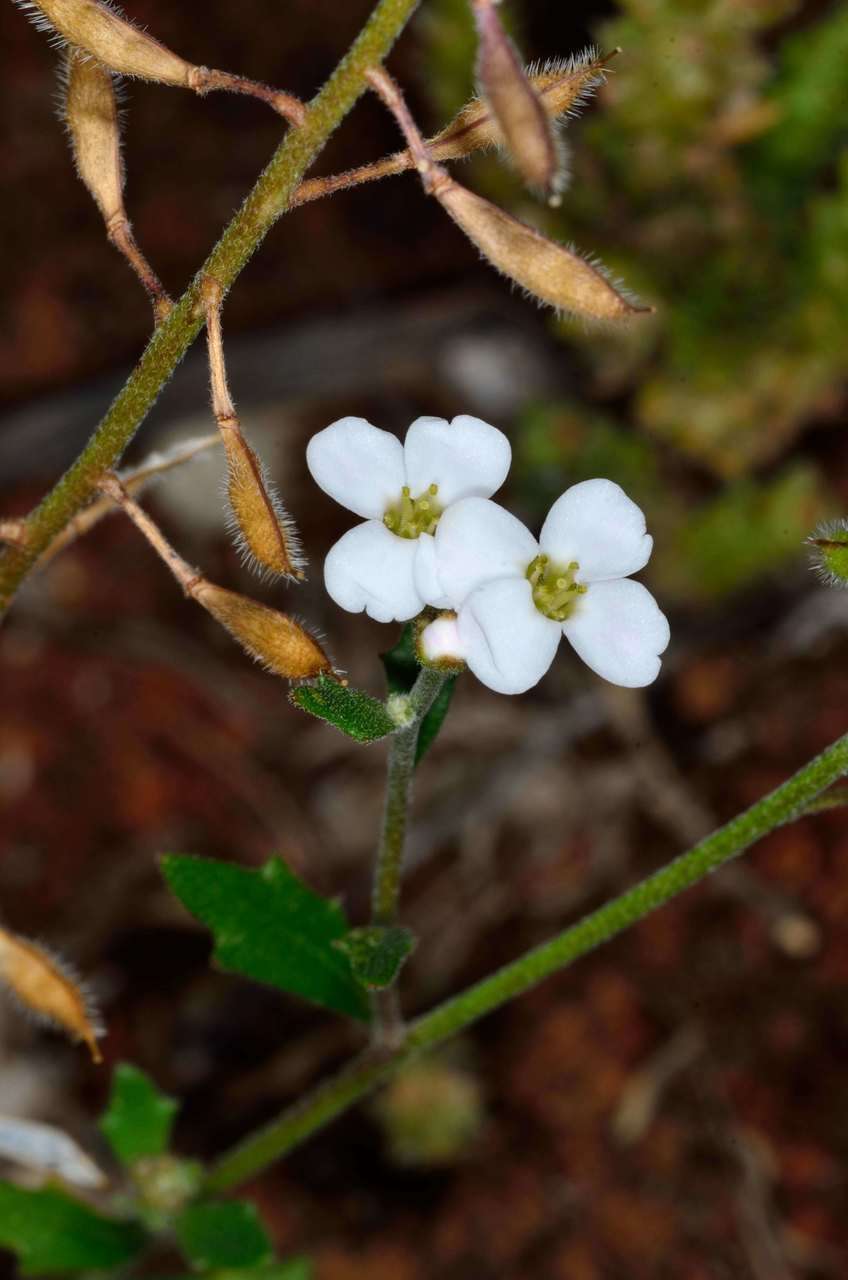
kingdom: Plantae
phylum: Tracheophyta
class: Magnoliopsida
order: Brassicales
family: Brassicaceae
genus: Harmsiodoxa
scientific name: Harmsiodoxa blennodioides
